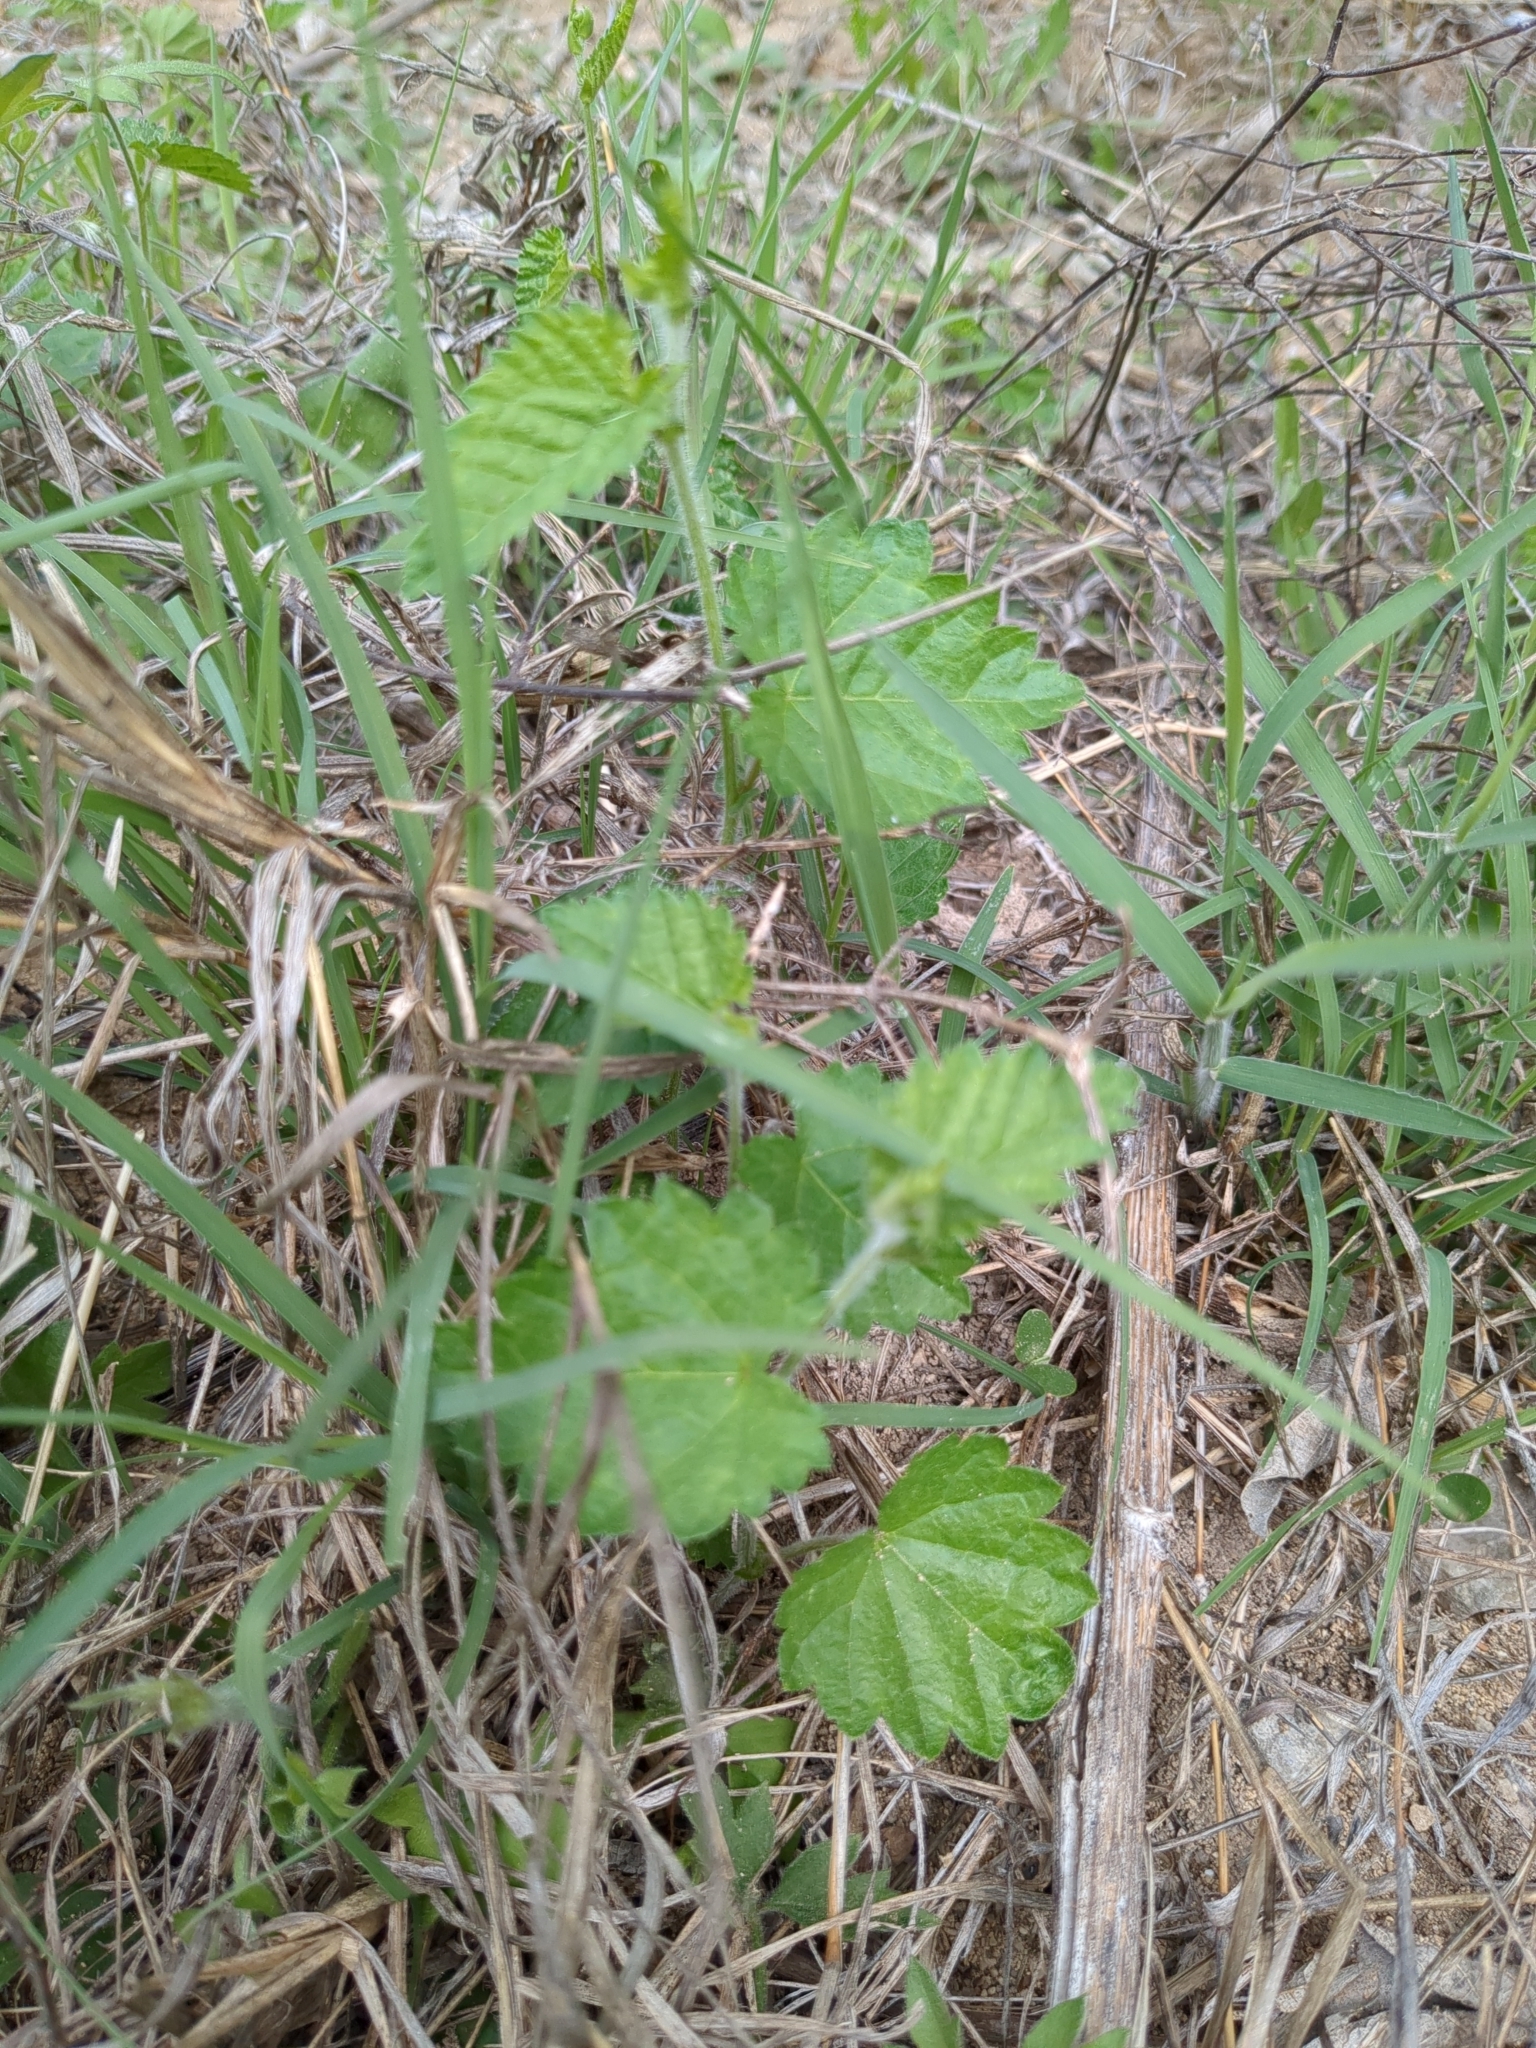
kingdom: Plantae
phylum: Tracheophyta
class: Magnoliopsida
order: Malpighiales
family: Euphorbiaceae
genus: Tragia
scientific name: Tragia urticifolia
